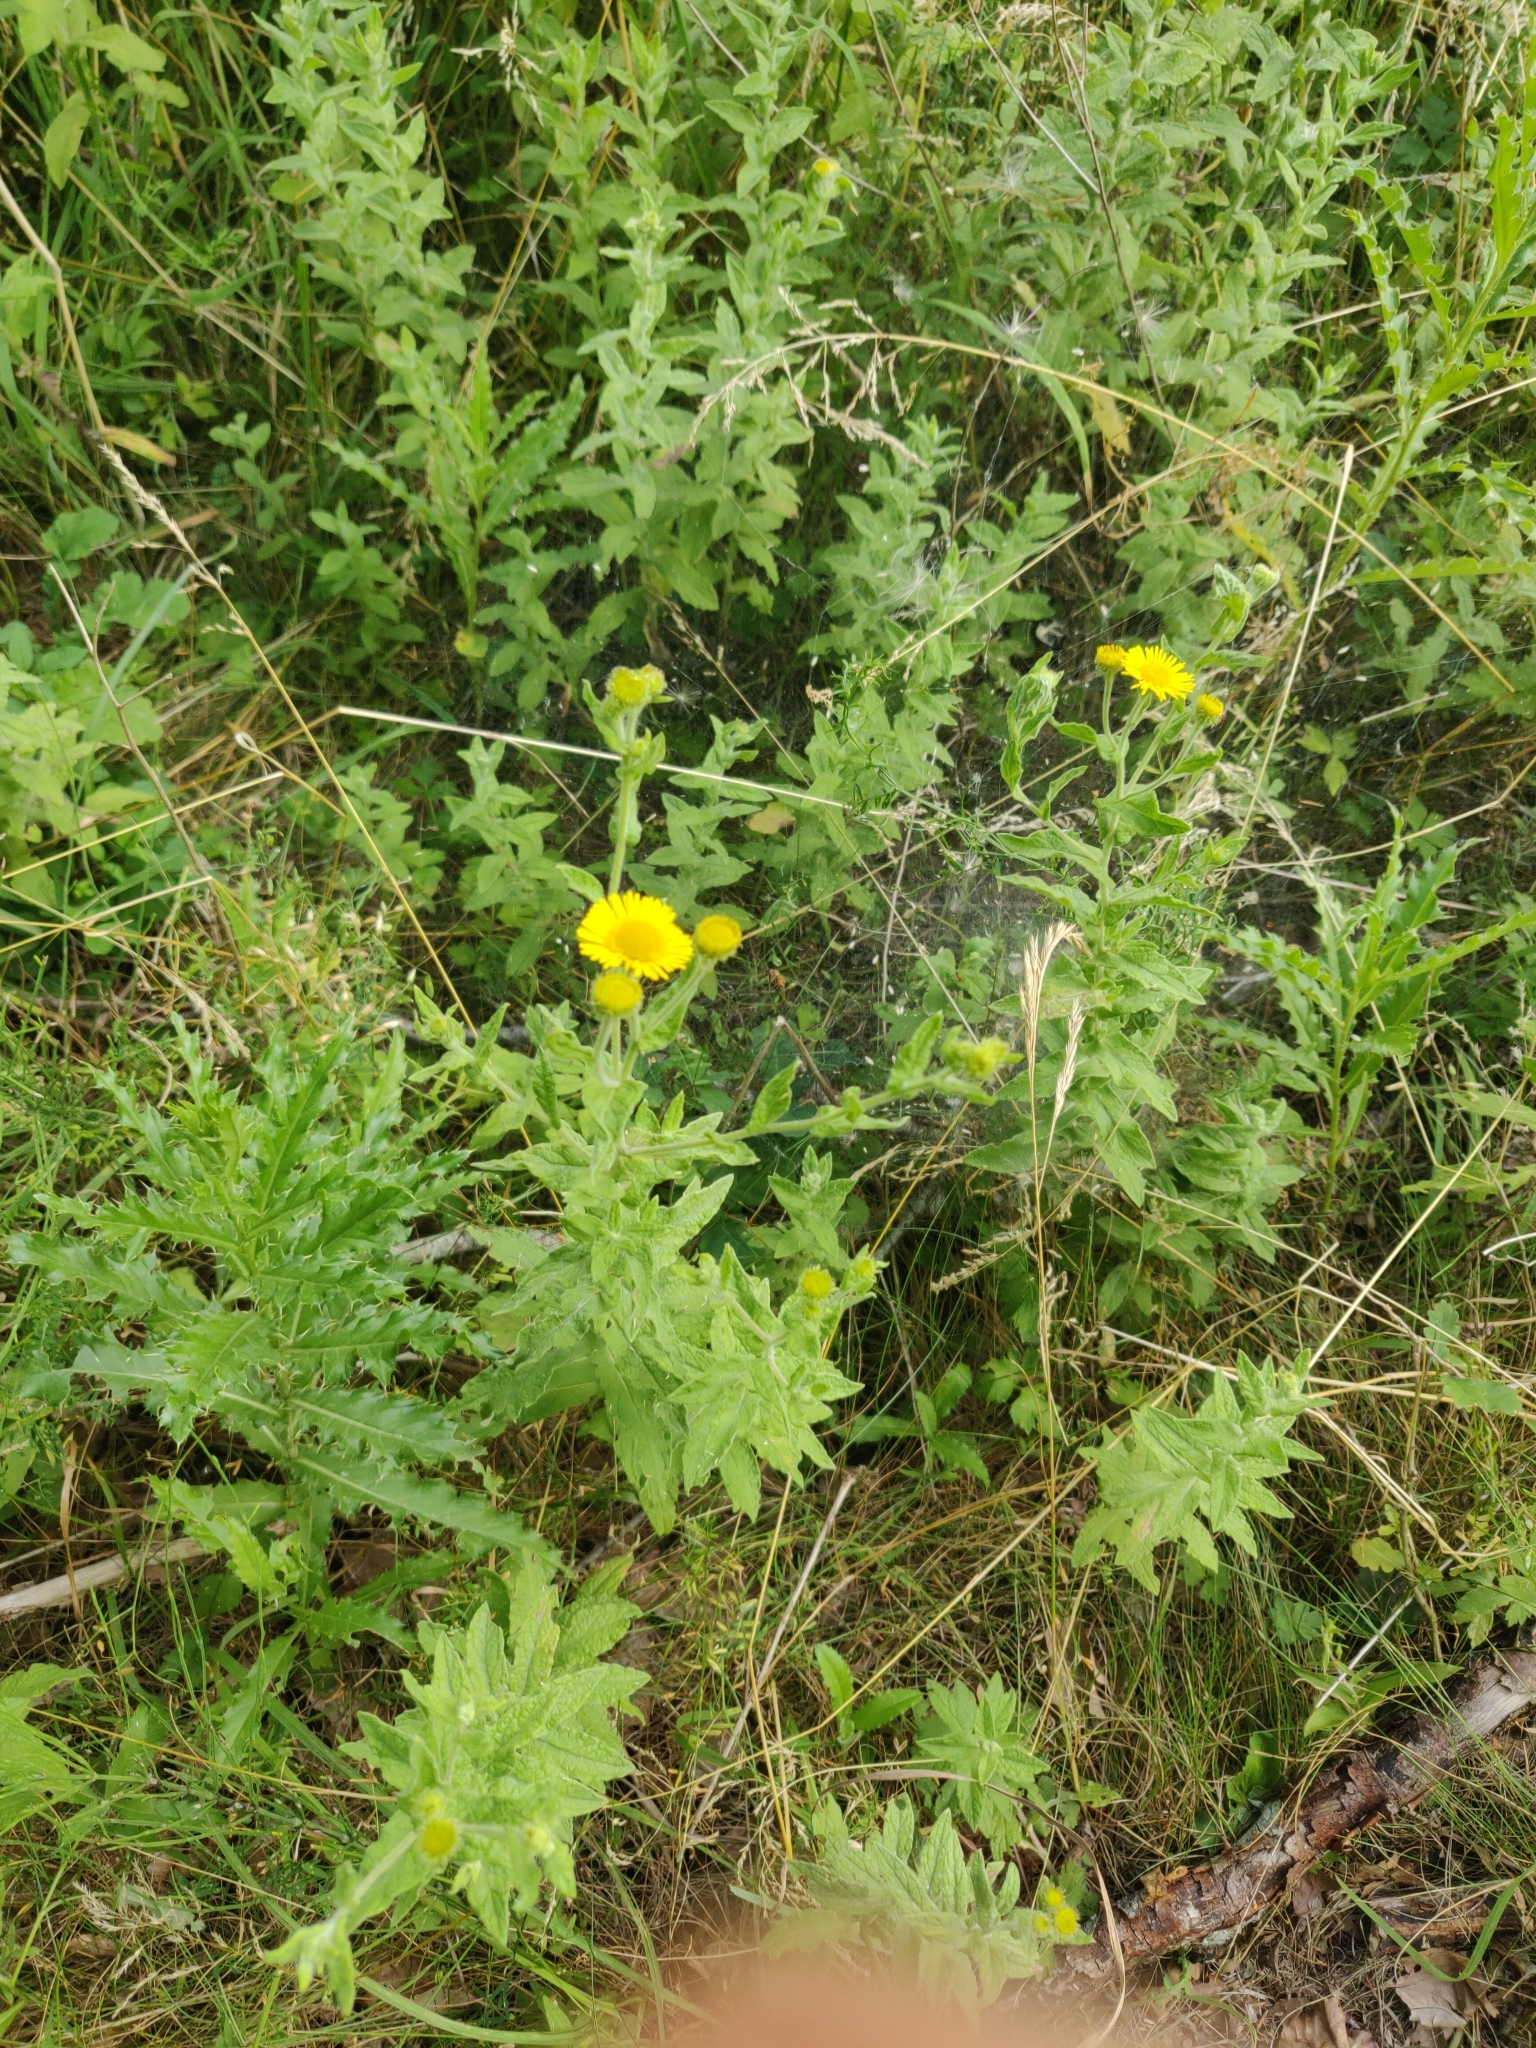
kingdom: Plantae
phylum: Tracheophyta
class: Magnoliopsida
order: Asterales
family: Asteraceae
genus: Pulicaria
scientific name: Pulicaria dysenterica
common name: Common fleabane
